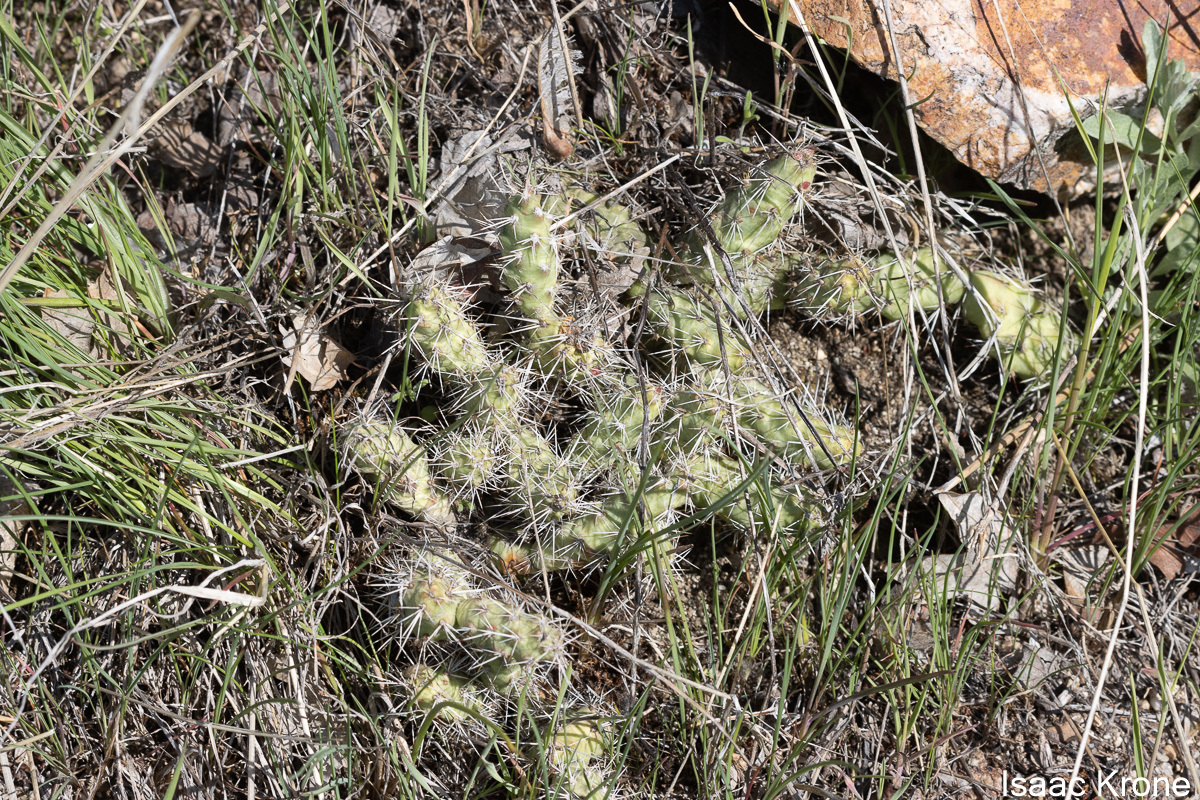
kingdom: Plantae
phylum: Tracheophyta
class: Magnoliopsida
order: Caryophyllales
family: Cactaceae
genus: Opuntia
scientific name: Opuntia fragilis
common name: Brittle cactus
